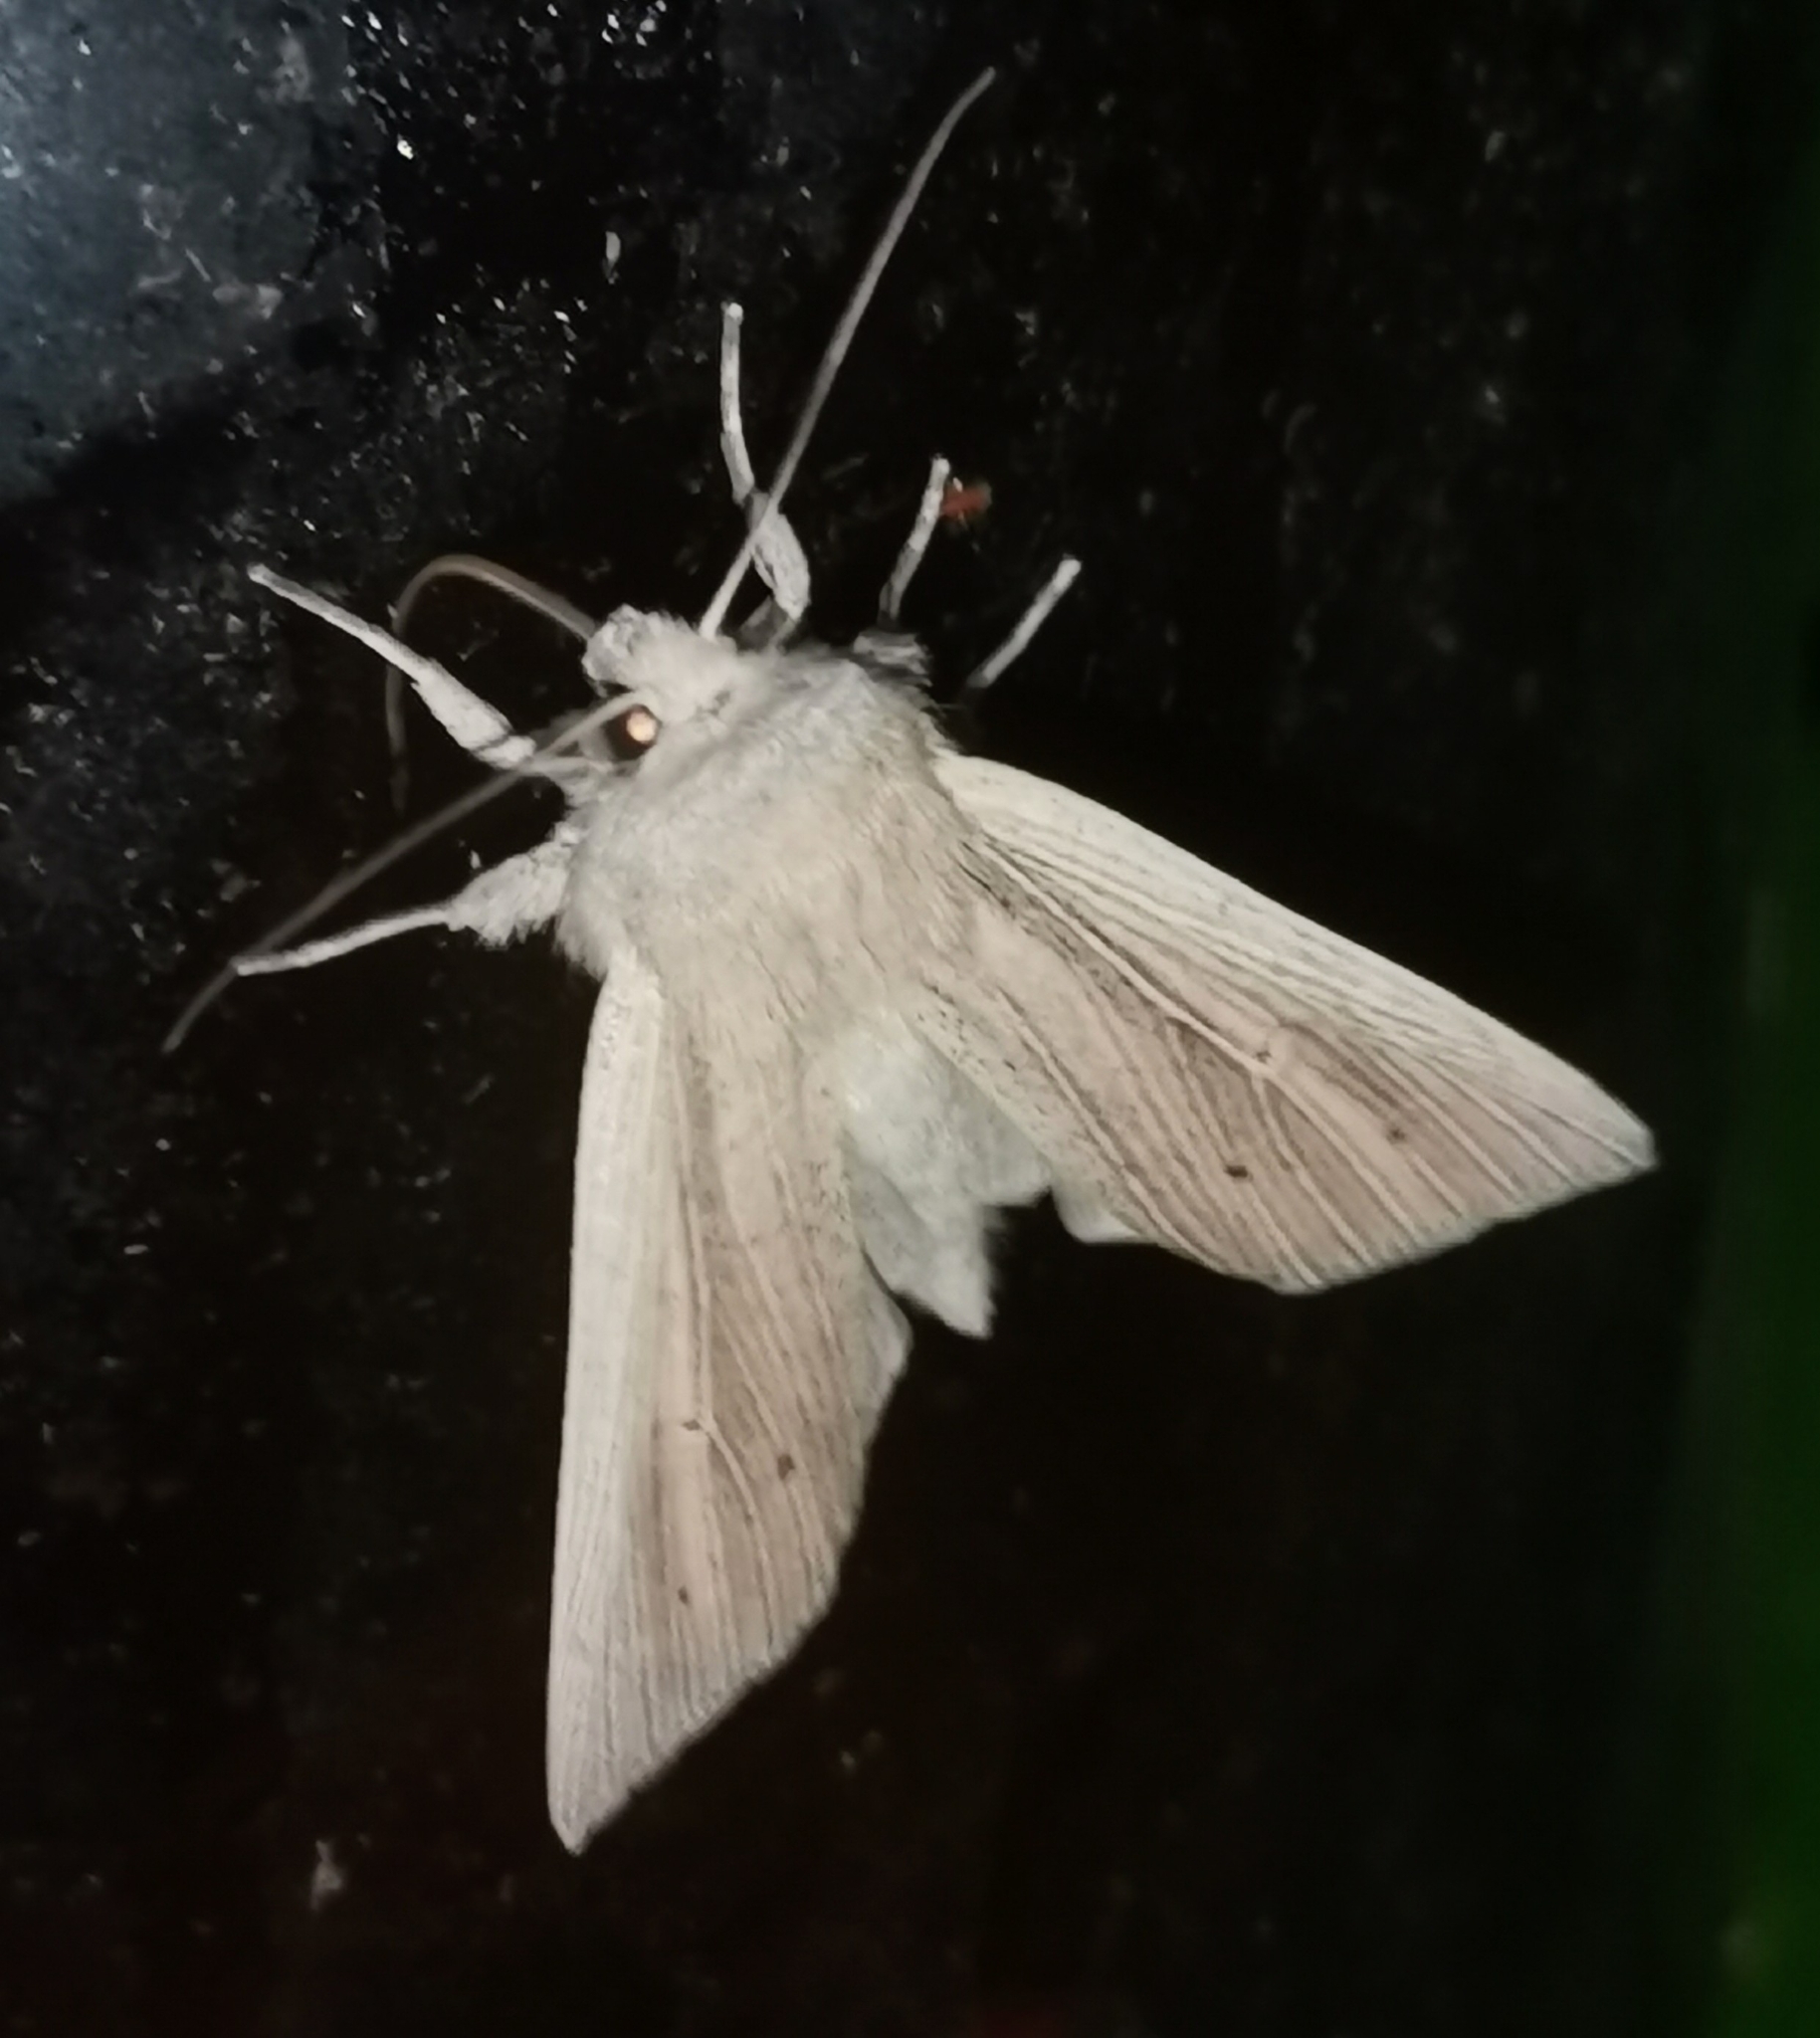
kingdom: Animalia
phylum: Arthropoda
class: Insecta
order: Lepidoptera
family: Noctuidae
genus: Mythimna
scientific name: Mythimna straminea
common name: Southern wainscot
